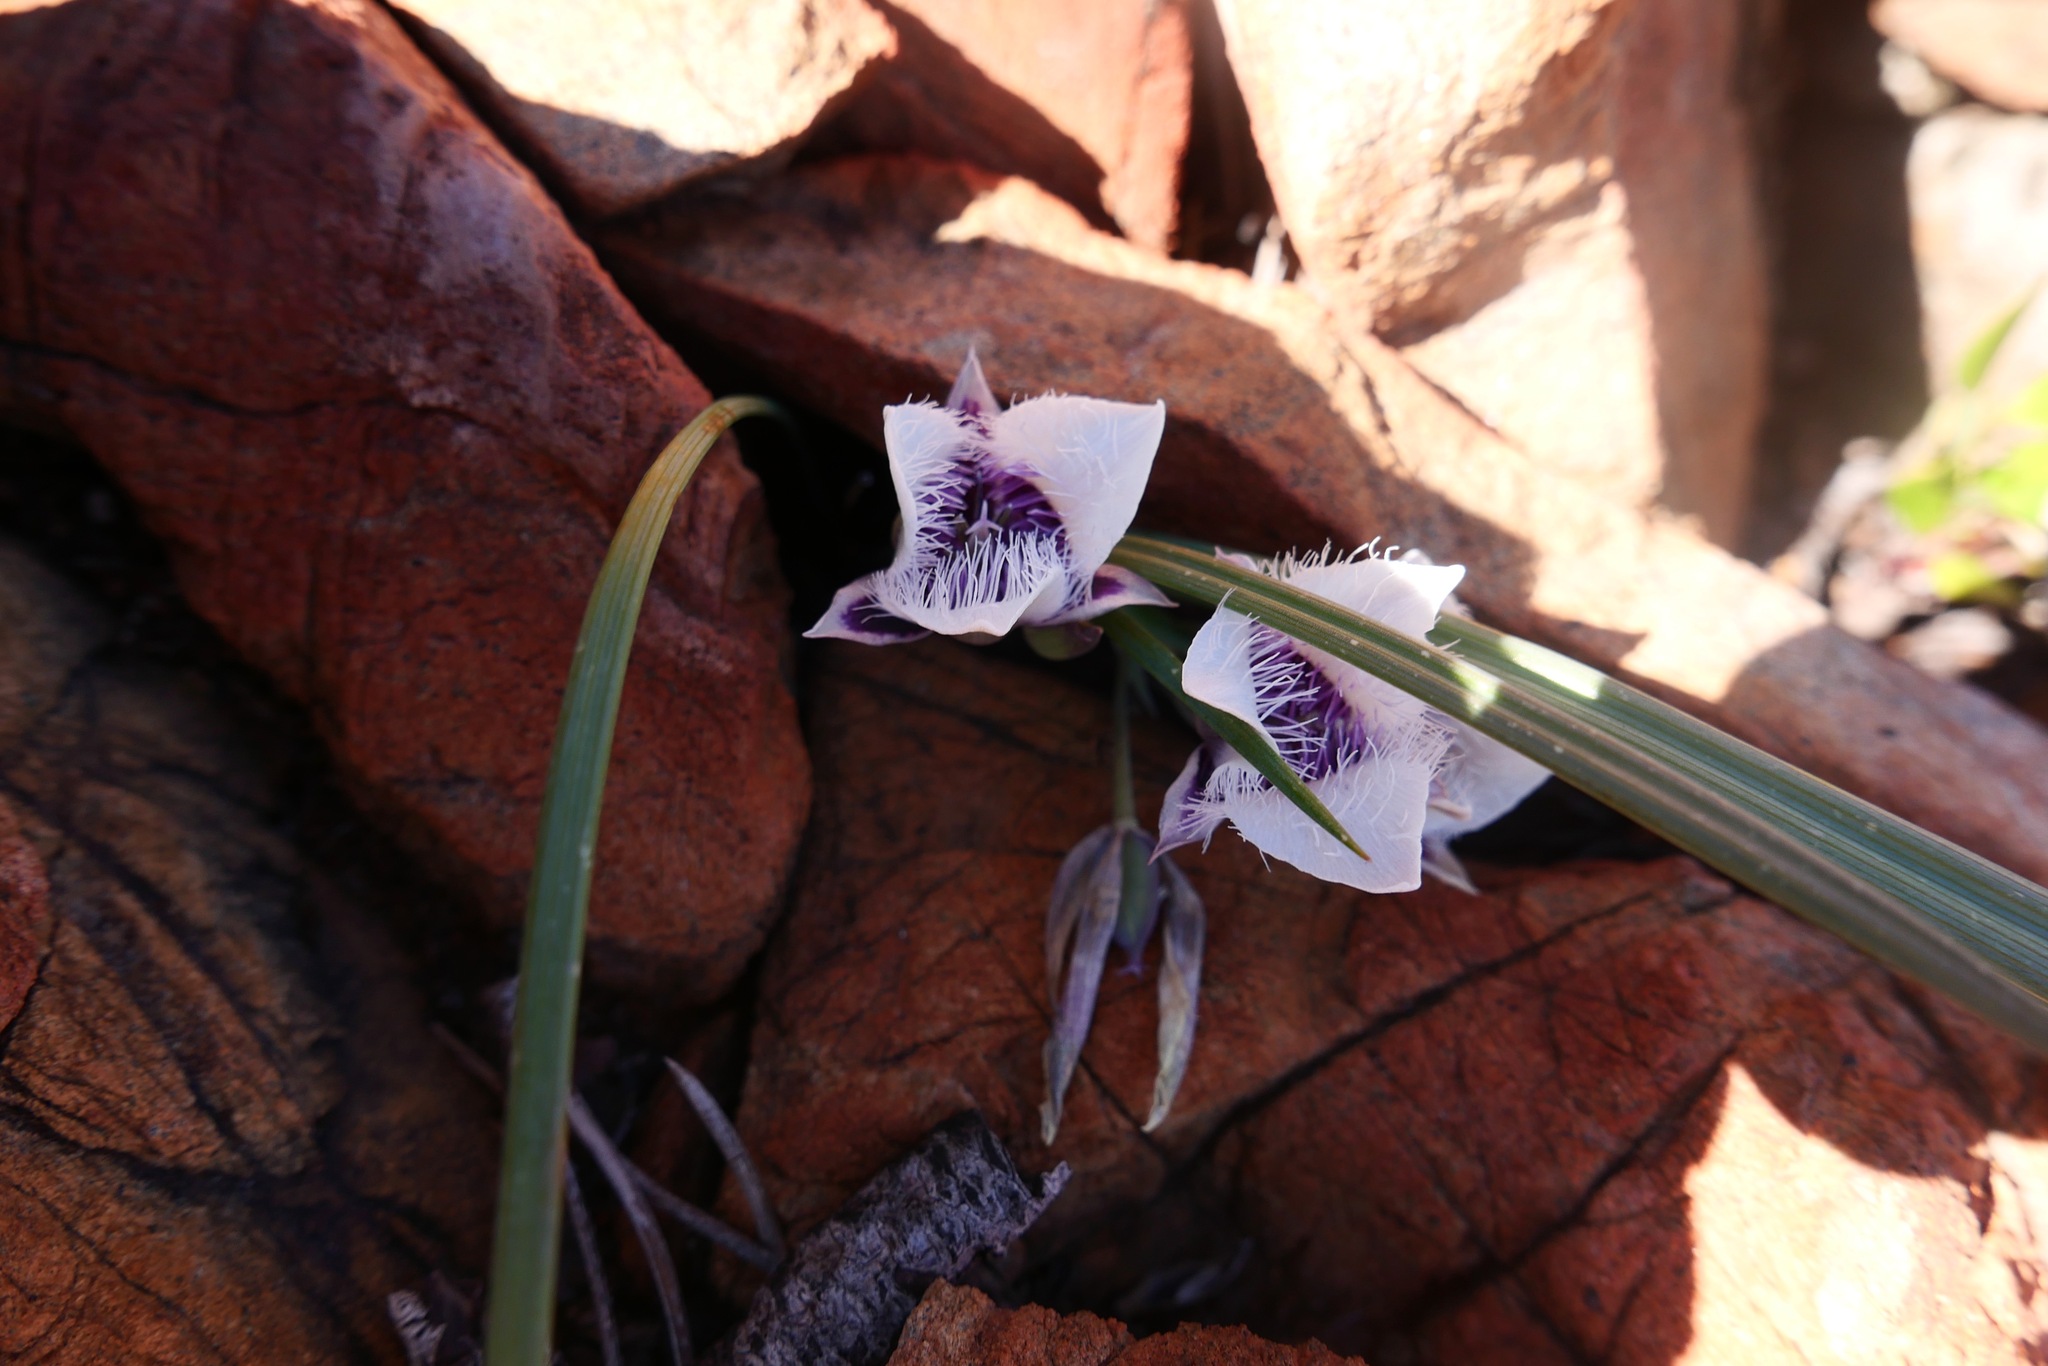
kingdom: Plantae
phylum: Tracheophyta
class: Liliopsida
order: Liliales
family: Liliaceae
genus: Calochortus
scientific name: Calochortus elegans
